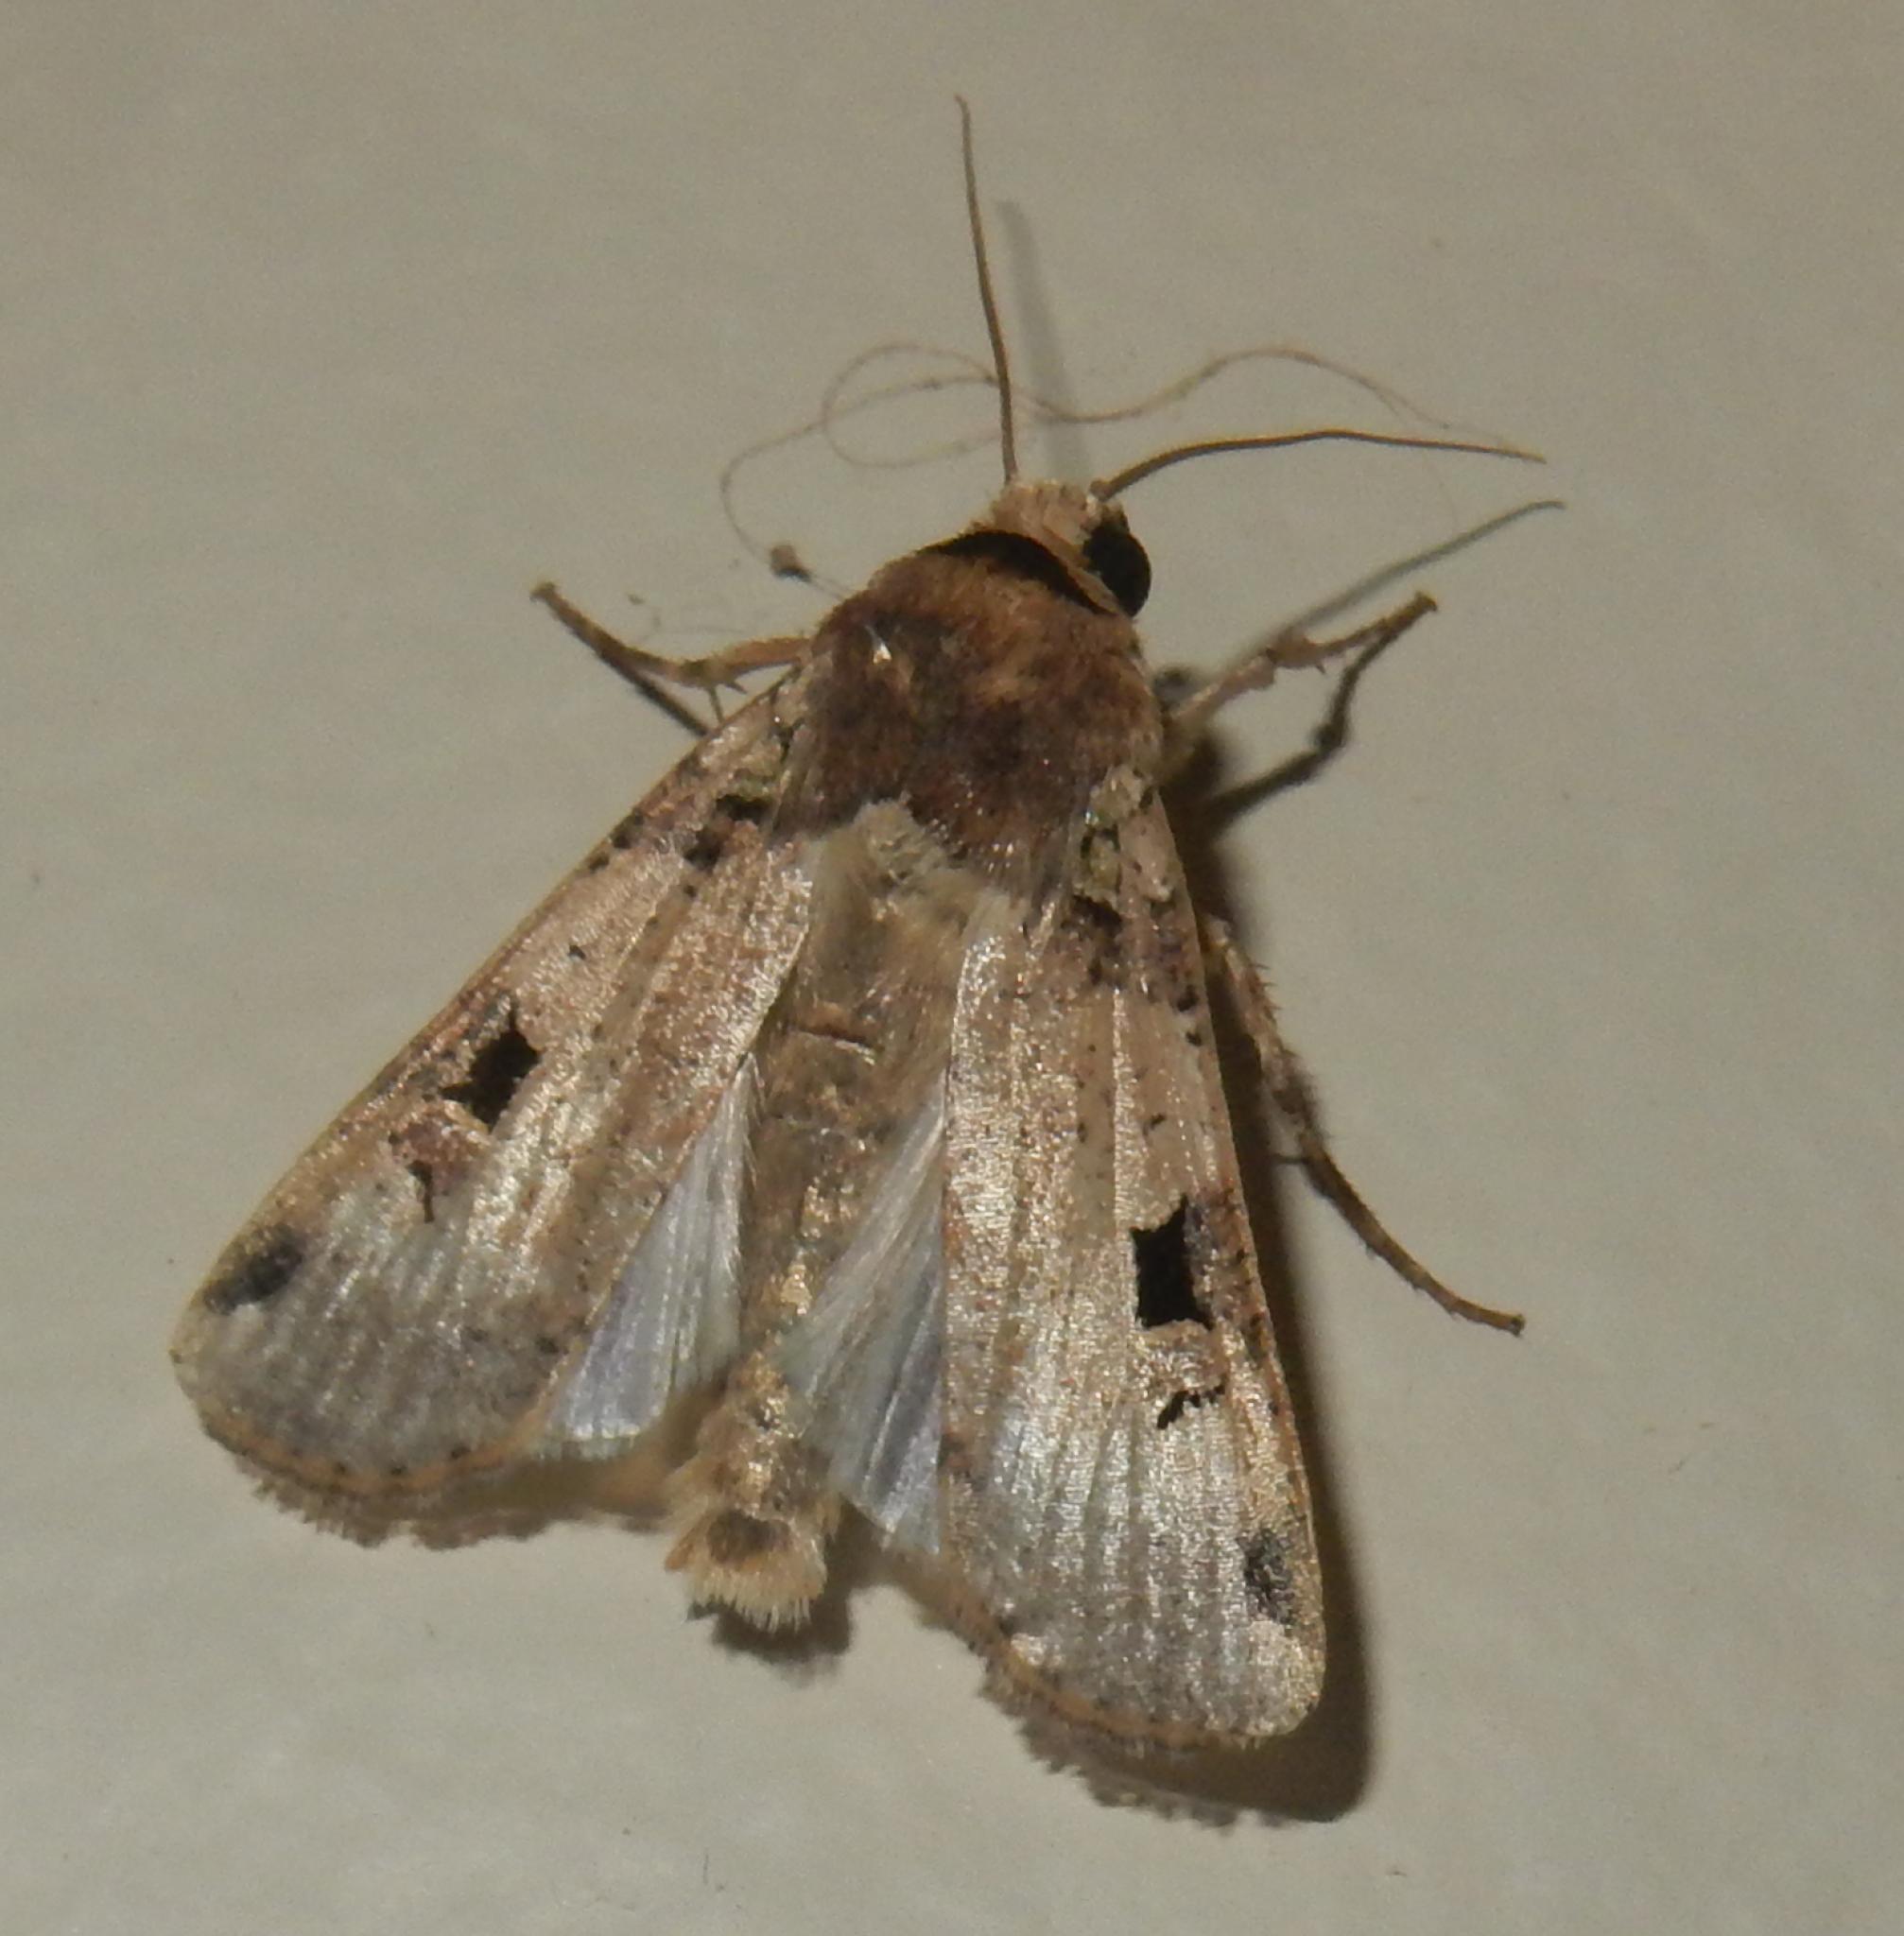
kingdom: Animalia
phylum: Arthropoda
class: Insecta
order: Lepidoptera
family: Noctuidae
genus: Mentaxya
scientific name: Mentaxya ignicollis
